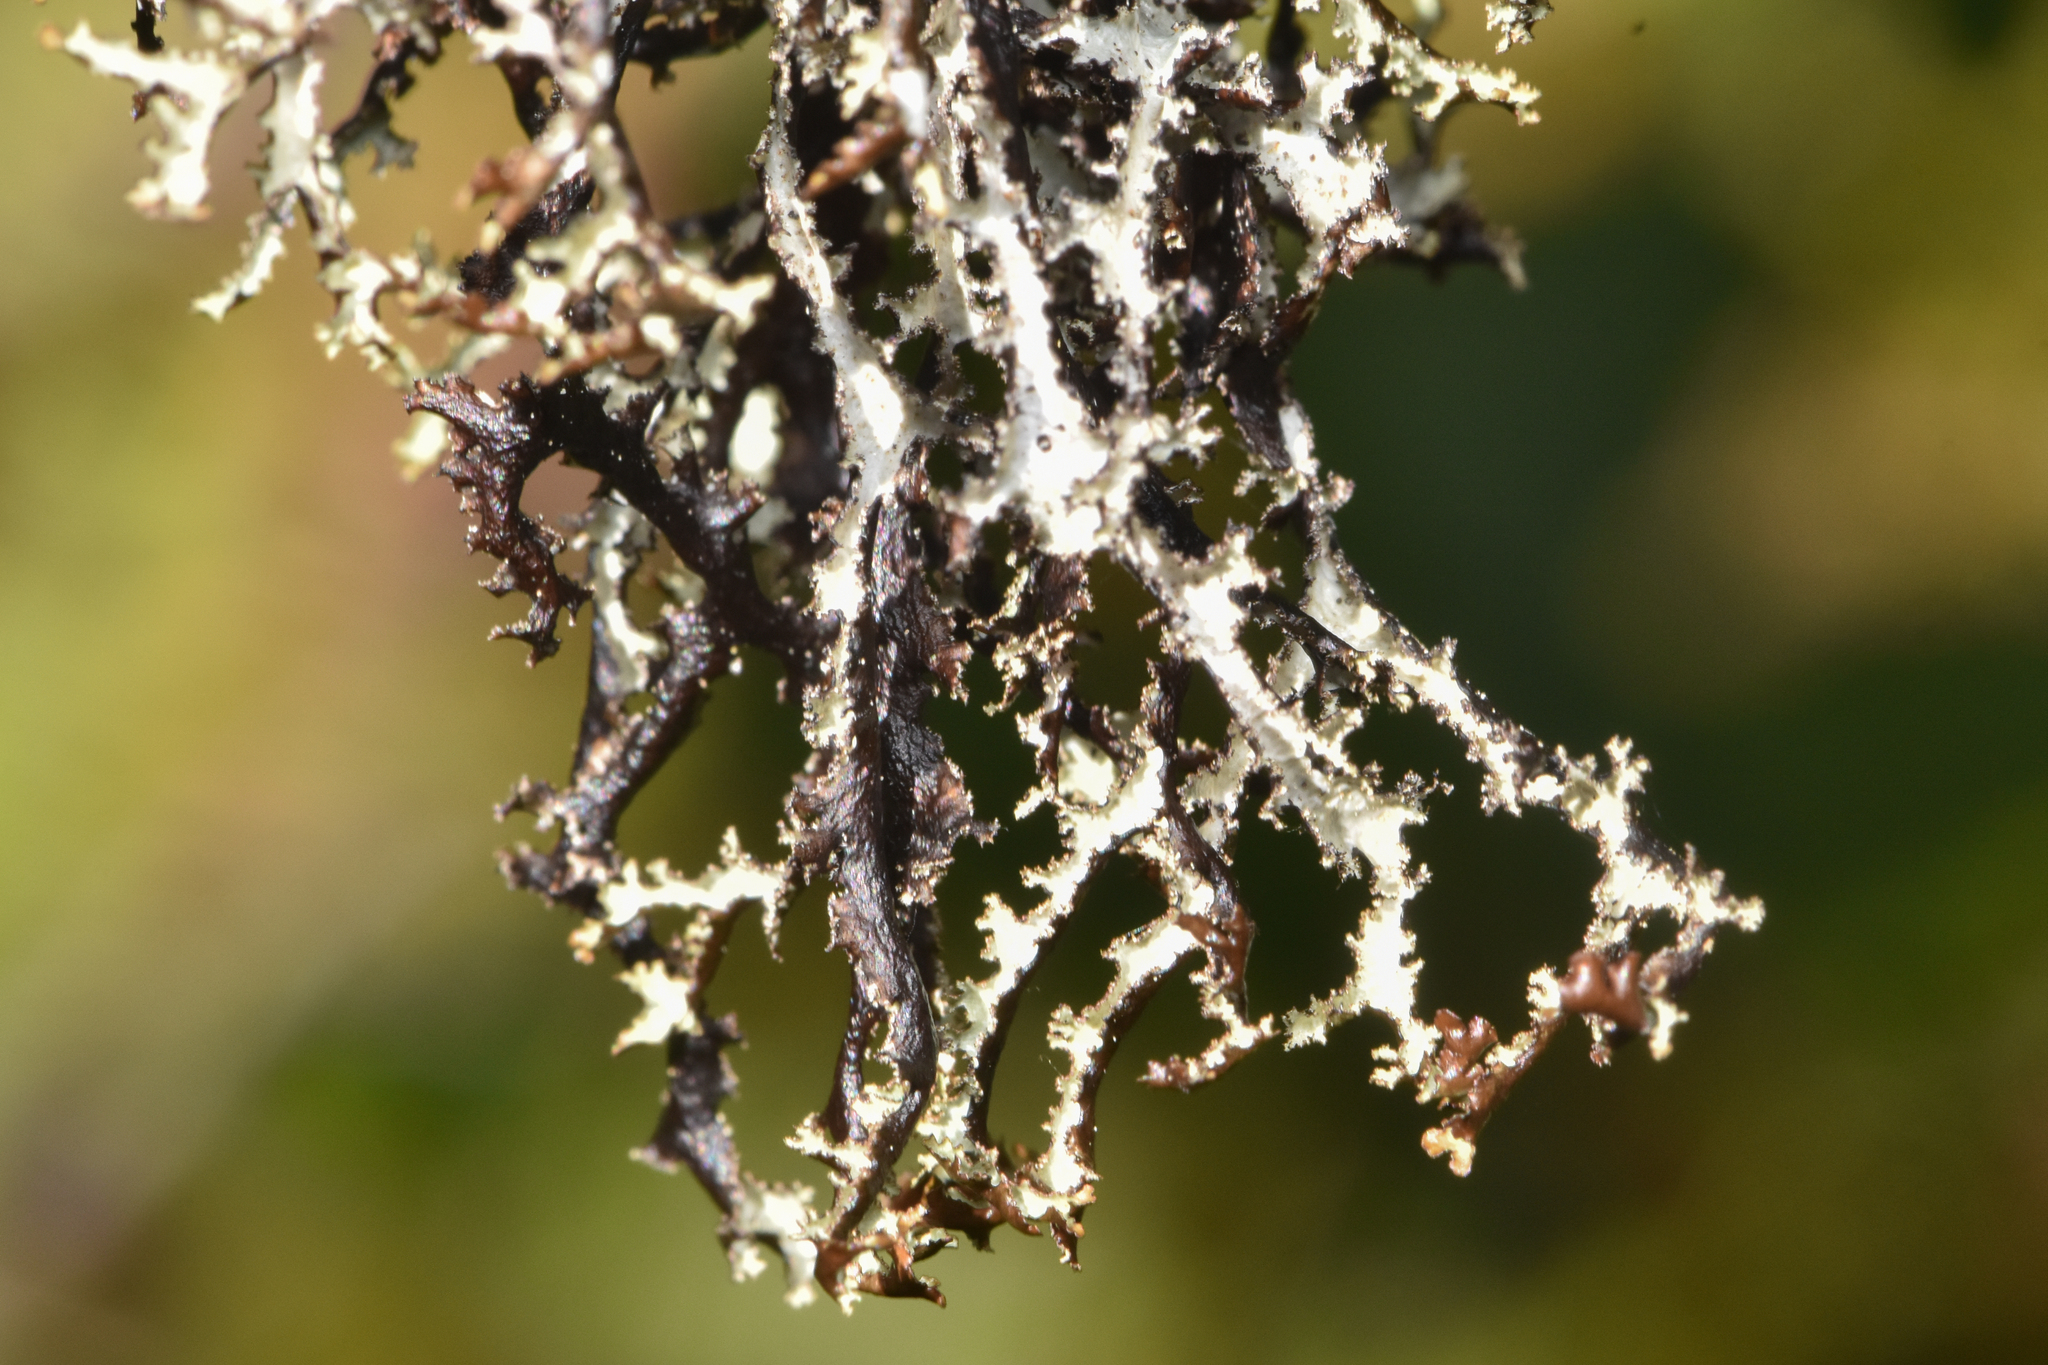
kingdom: Fungi
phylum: Ascomycota
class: Lecanoromycetes
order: Lecanorales
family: Parmeliaceae
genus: Platismatia
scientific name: Platismatia herrei
